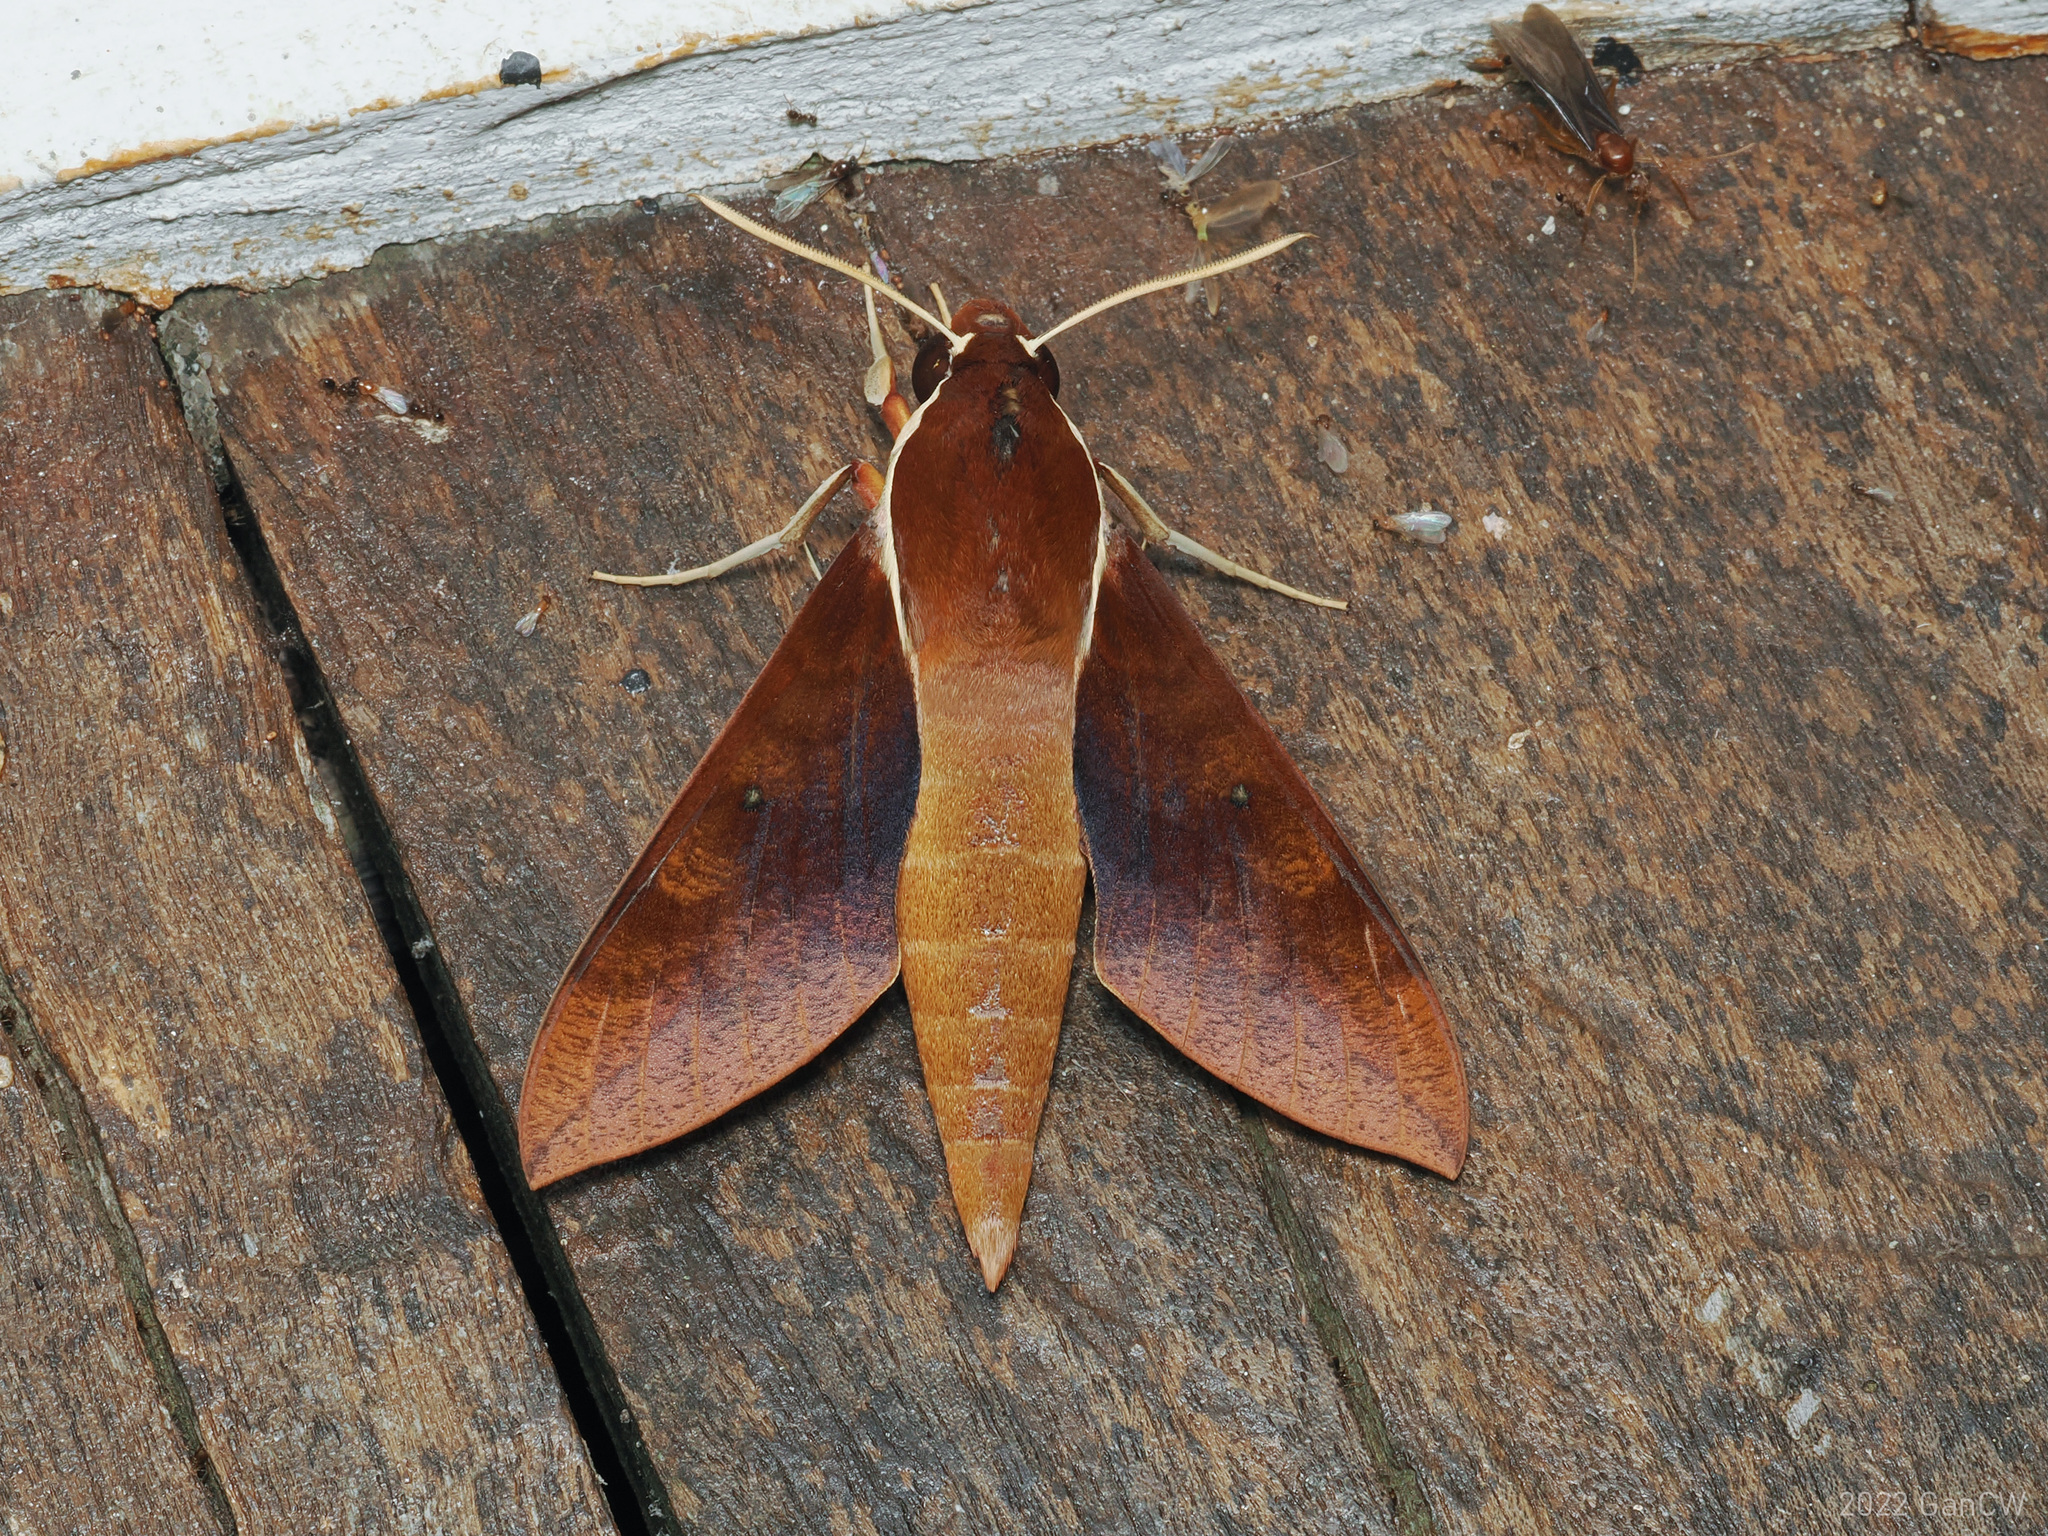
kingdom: Animalia
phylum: Arthropoda
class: Insecta
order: Lepidoptera
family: Sphingidae
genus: Gnathothlibus
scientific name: Gnathothlibus erotus
